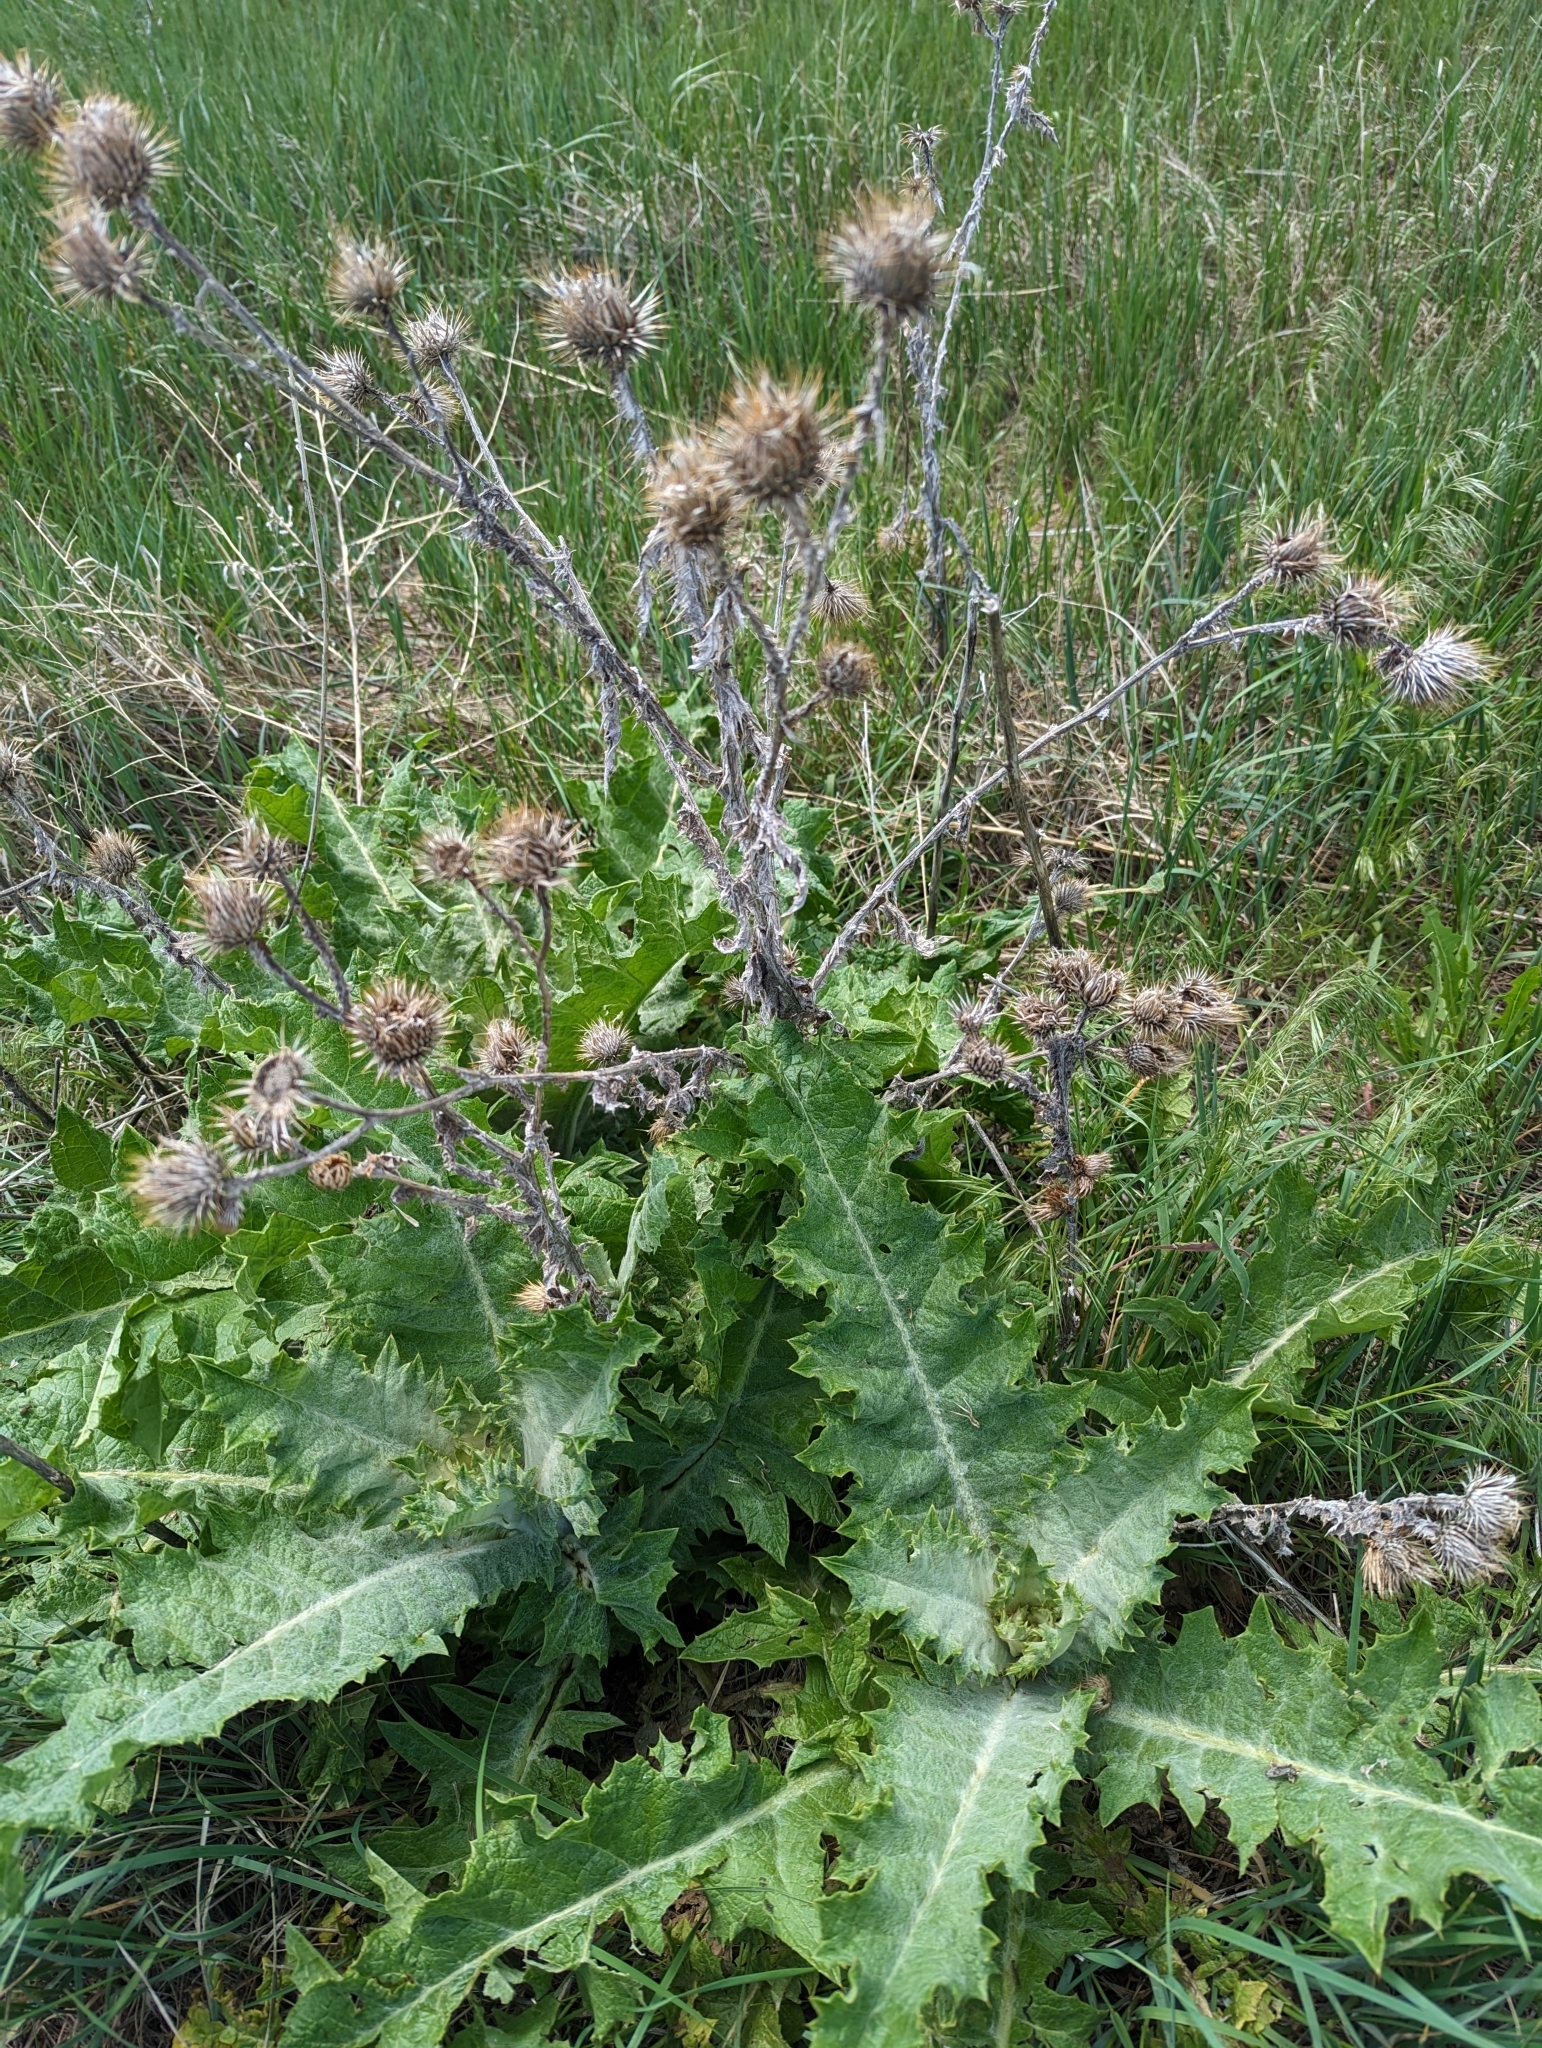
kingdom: Plantae
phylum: Tracheophyta
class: Magnoliopsida
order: Asterales
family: Asteraceae
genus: Onopordum
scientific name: Onopordum acanthium
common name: Scotch thistle
